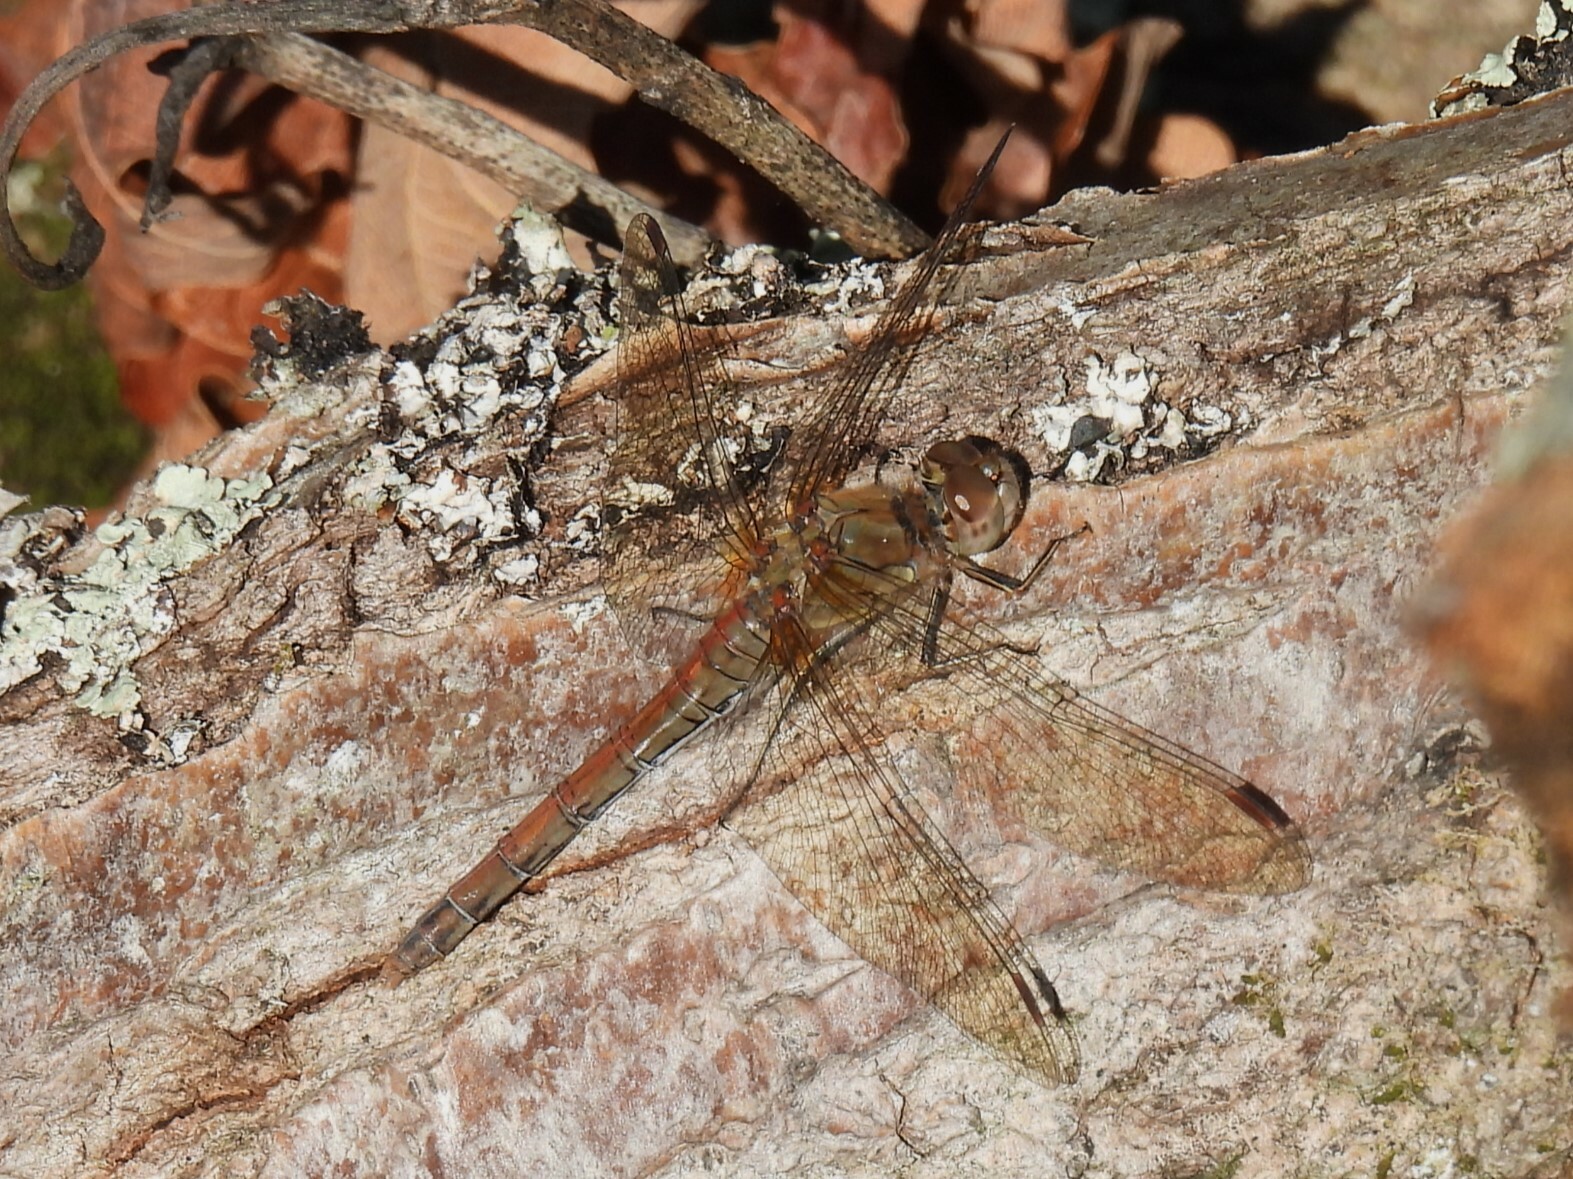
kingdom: Animalia
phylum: Arthropoda
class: Insecta
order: Odonata
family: Libellulidae
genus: Sympetrum
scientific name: Sympetrum striolatum
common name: Common darter
